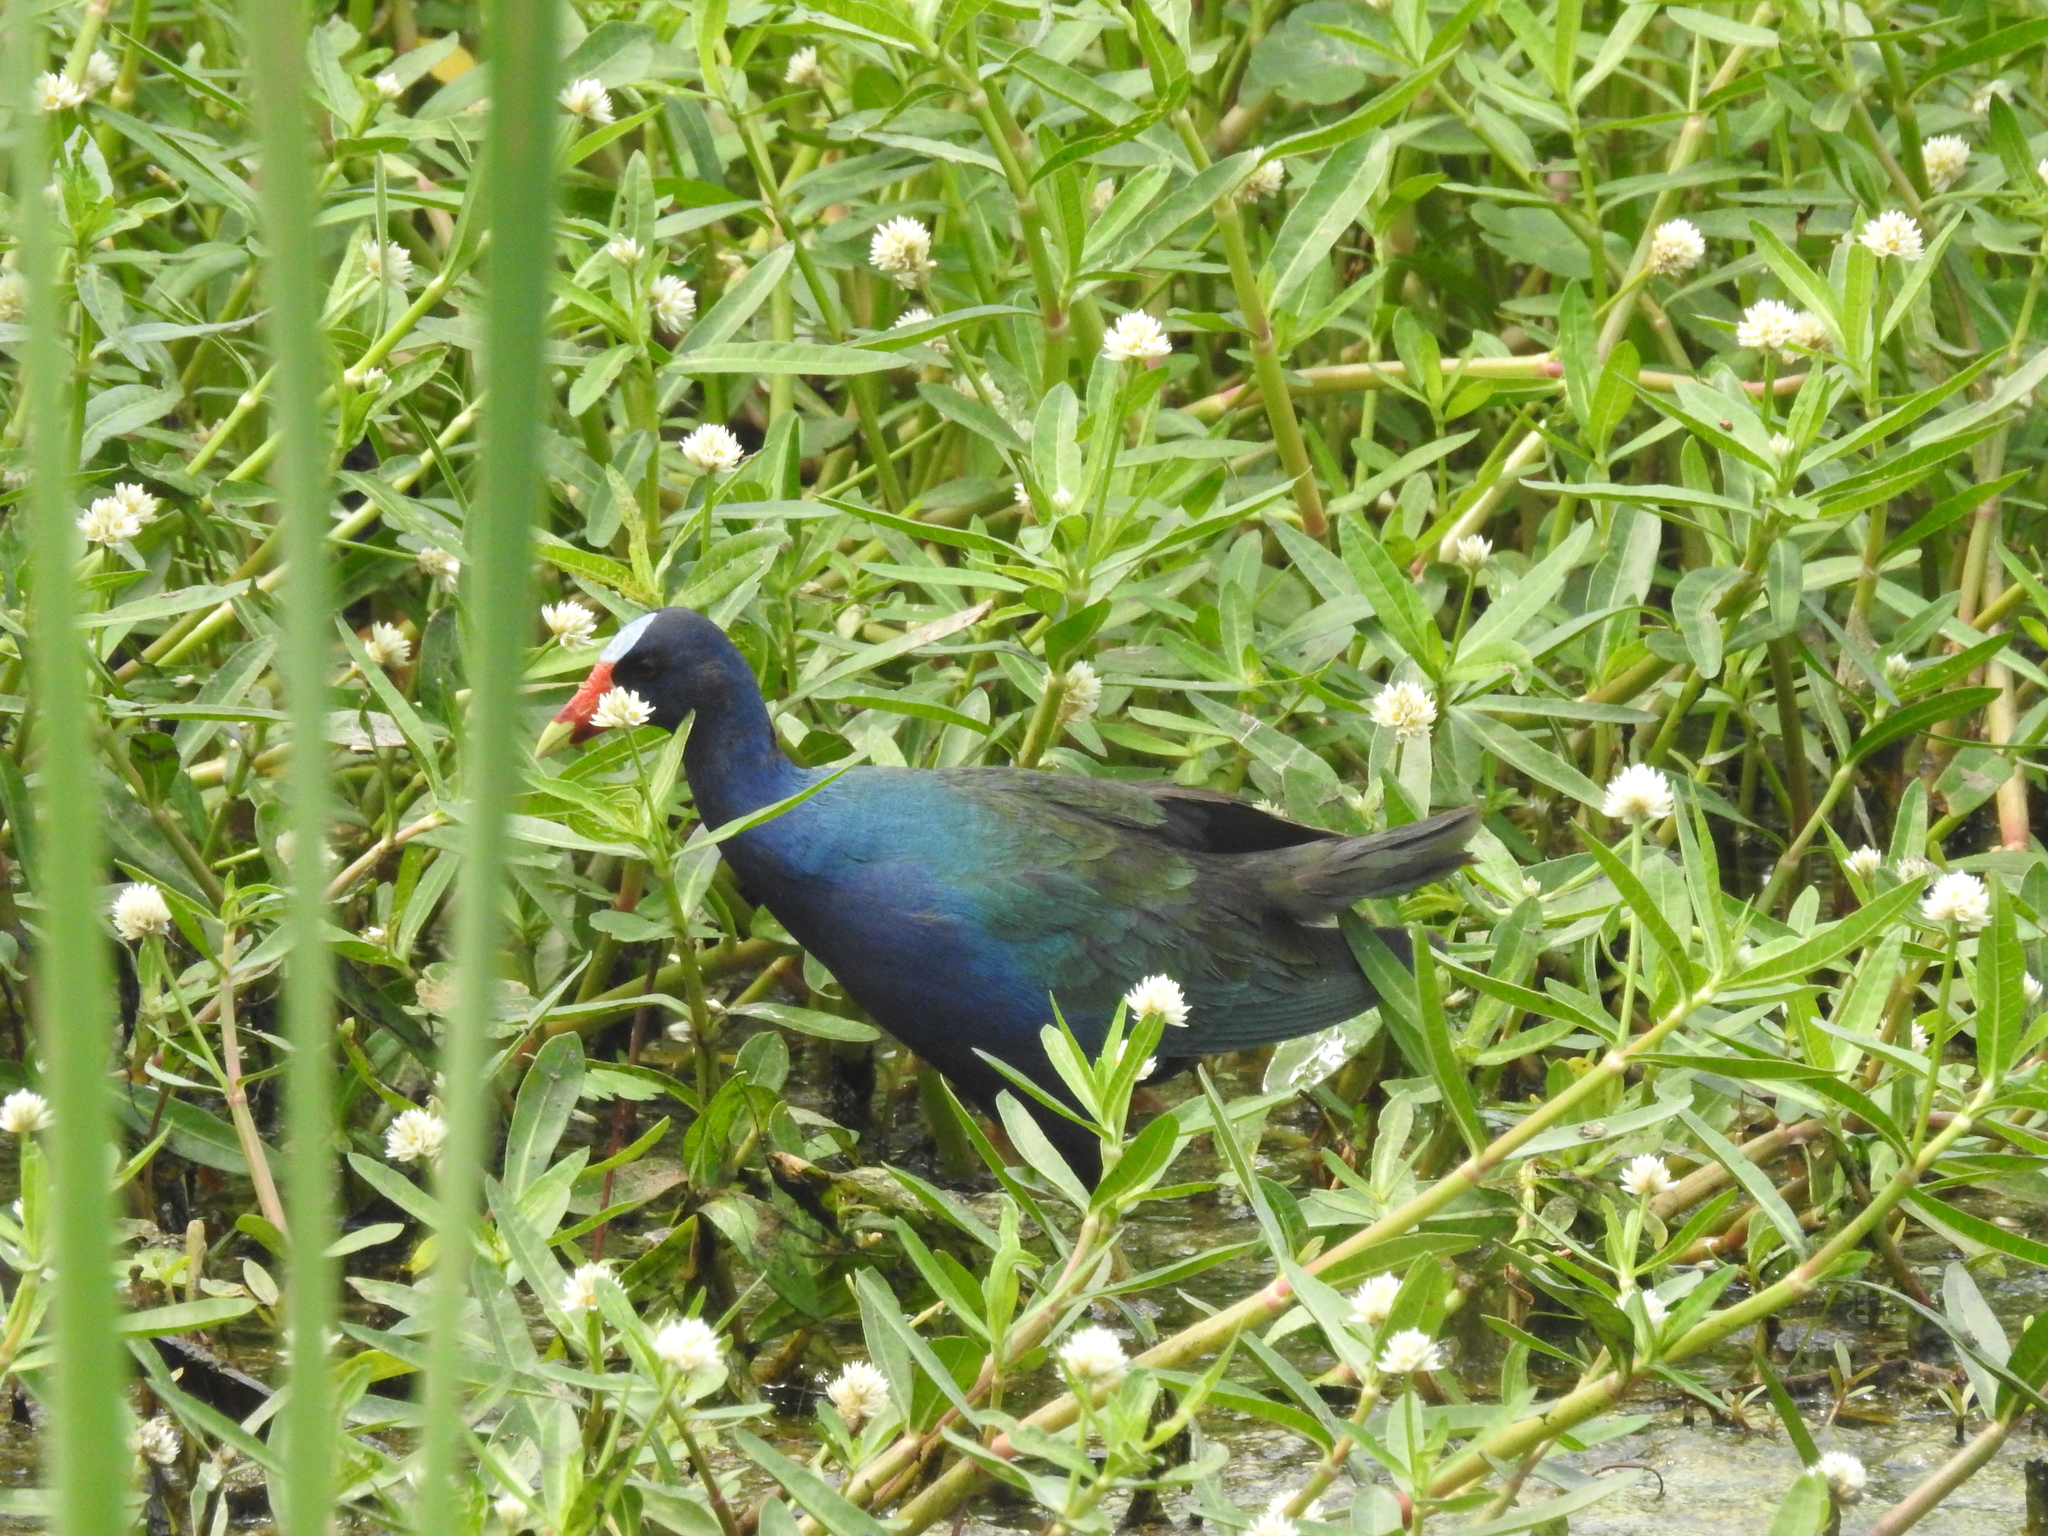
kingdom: Animalia
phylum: Chordata
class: Aves
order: Gruiformes
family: Rallidae
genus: Porphyrio
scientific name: Porphyrio martinica
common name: Purple gallinule
